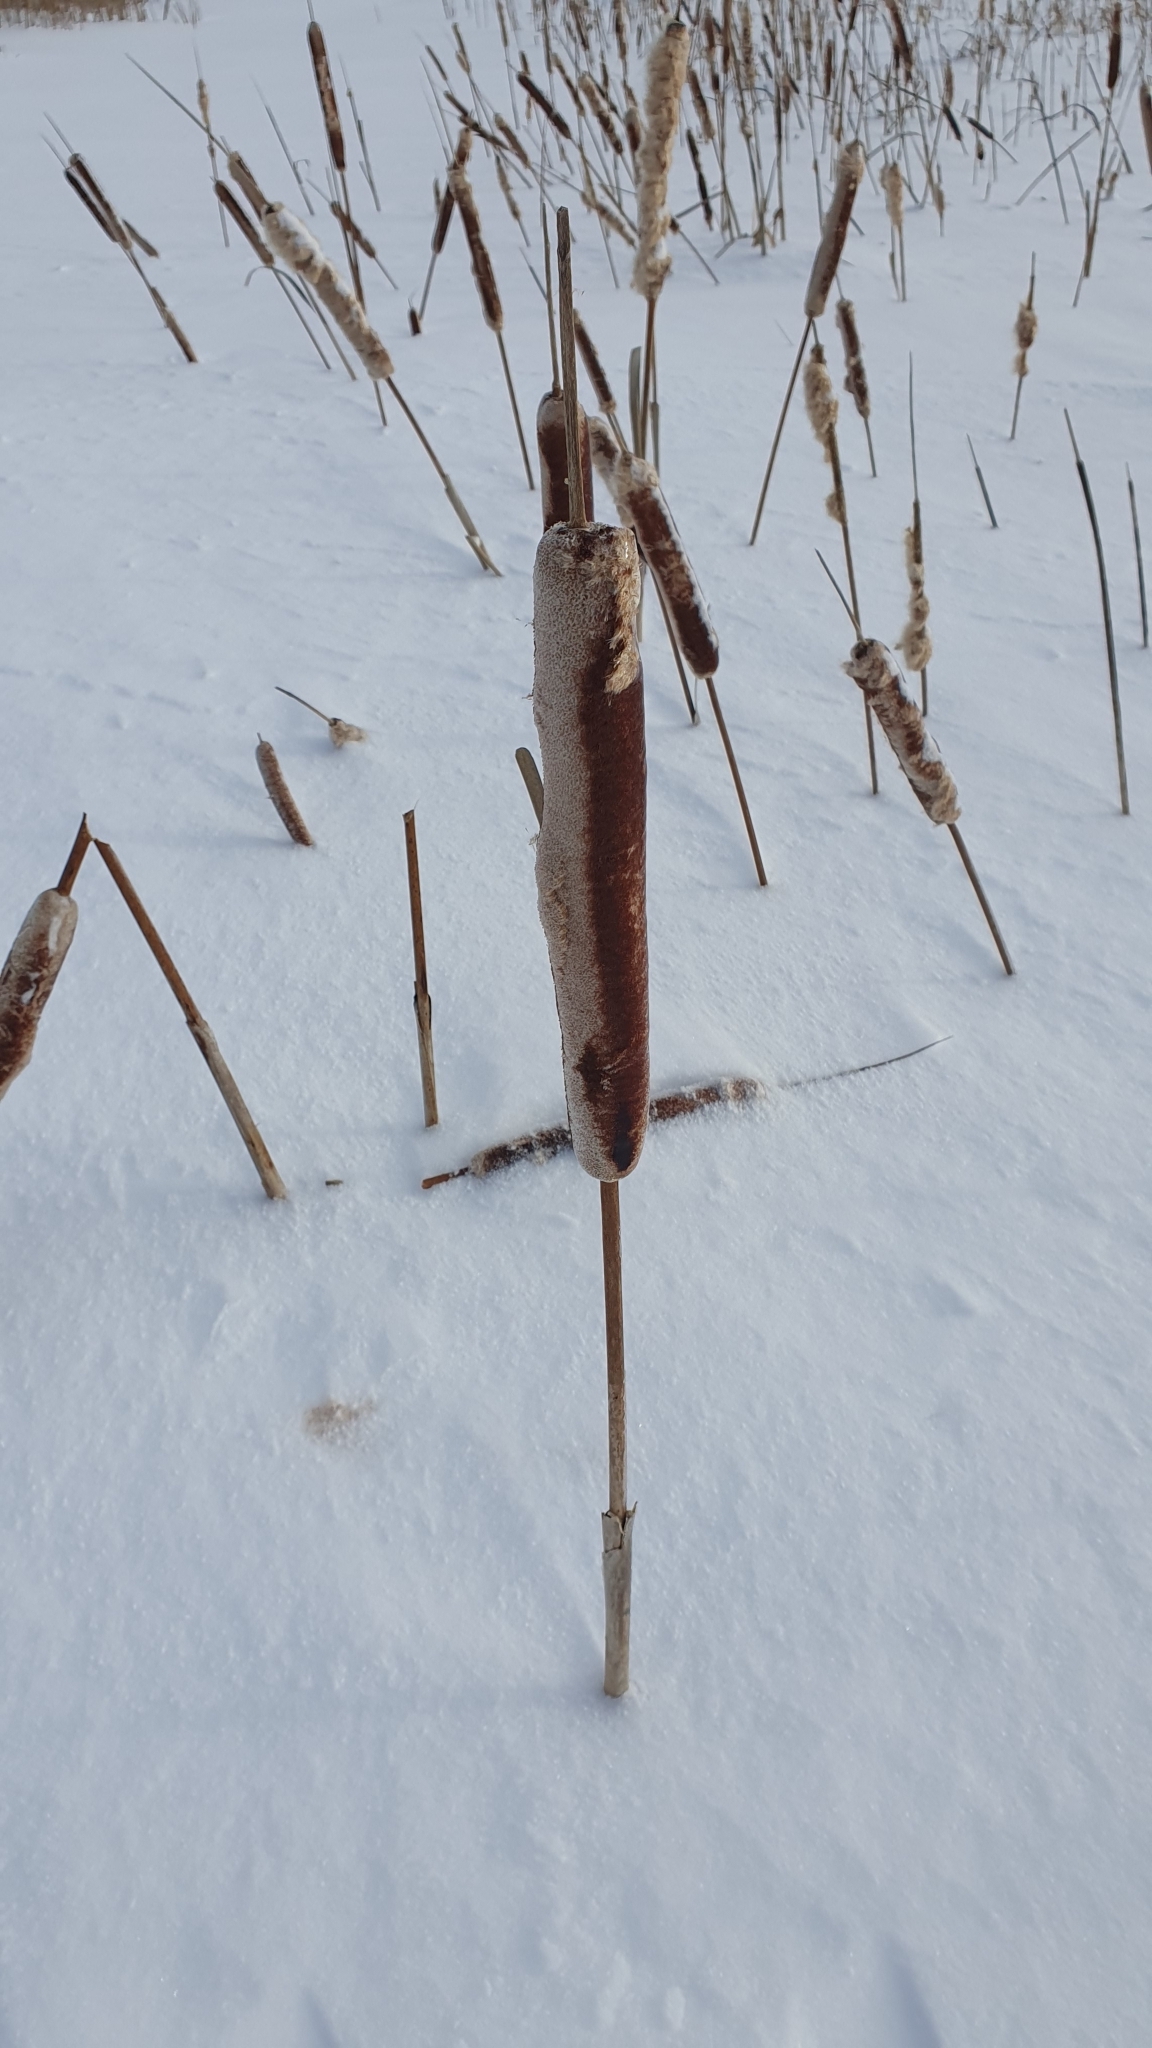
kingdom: Plantae
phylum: Tracheophyta
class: Liliopsida
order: Poales
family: Typhaceae
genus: Typha
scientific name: Typha latifolia
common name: Broadleaf cattail
